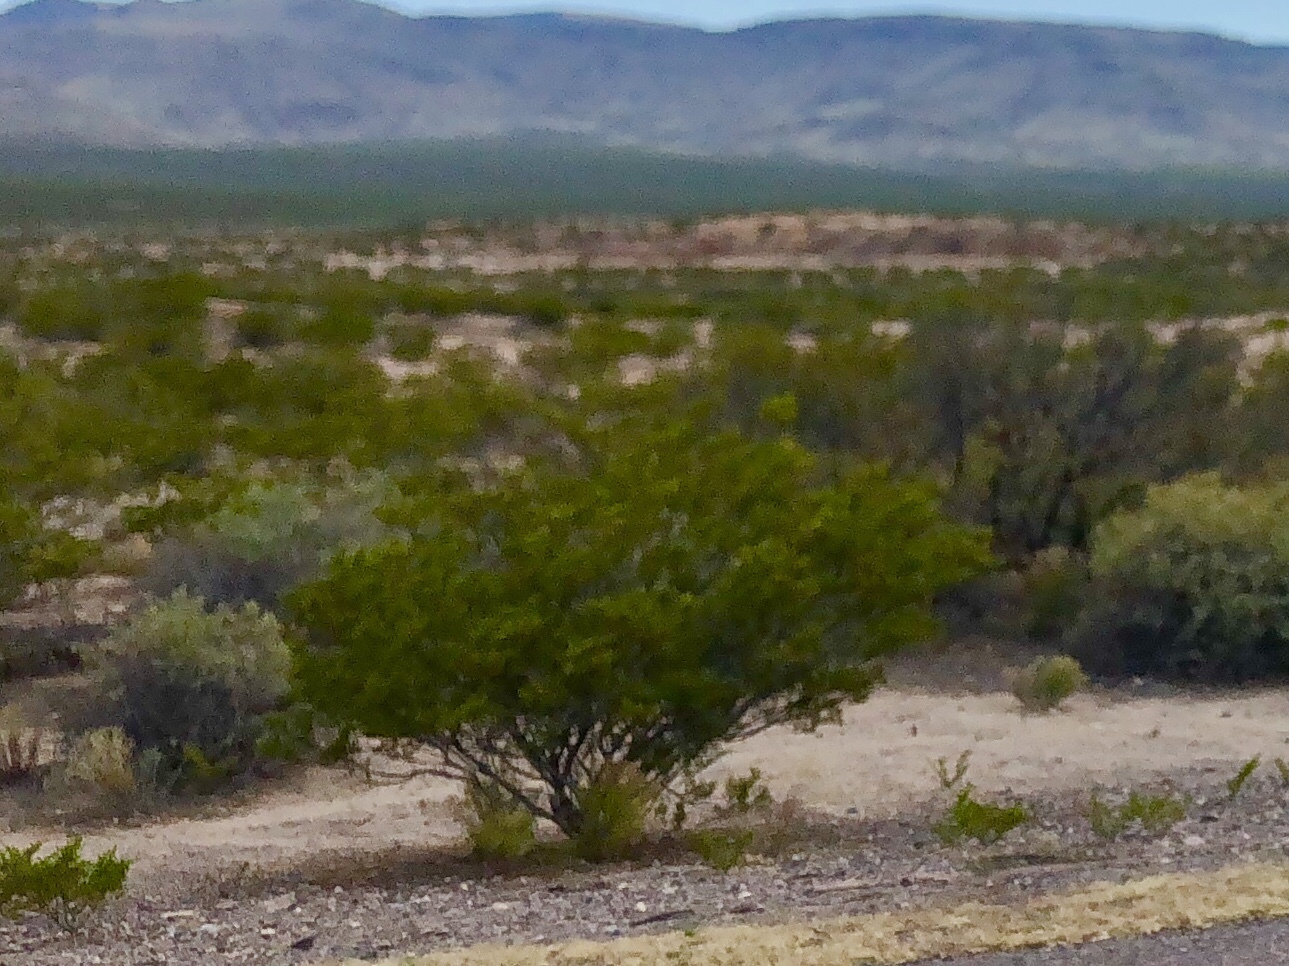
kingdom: Plantae
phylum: Tracheophyta
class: Magnoliopsida
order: Zygophyllales
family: Zygophyllaceae
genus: Larrea
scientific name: Larrea tridentata
